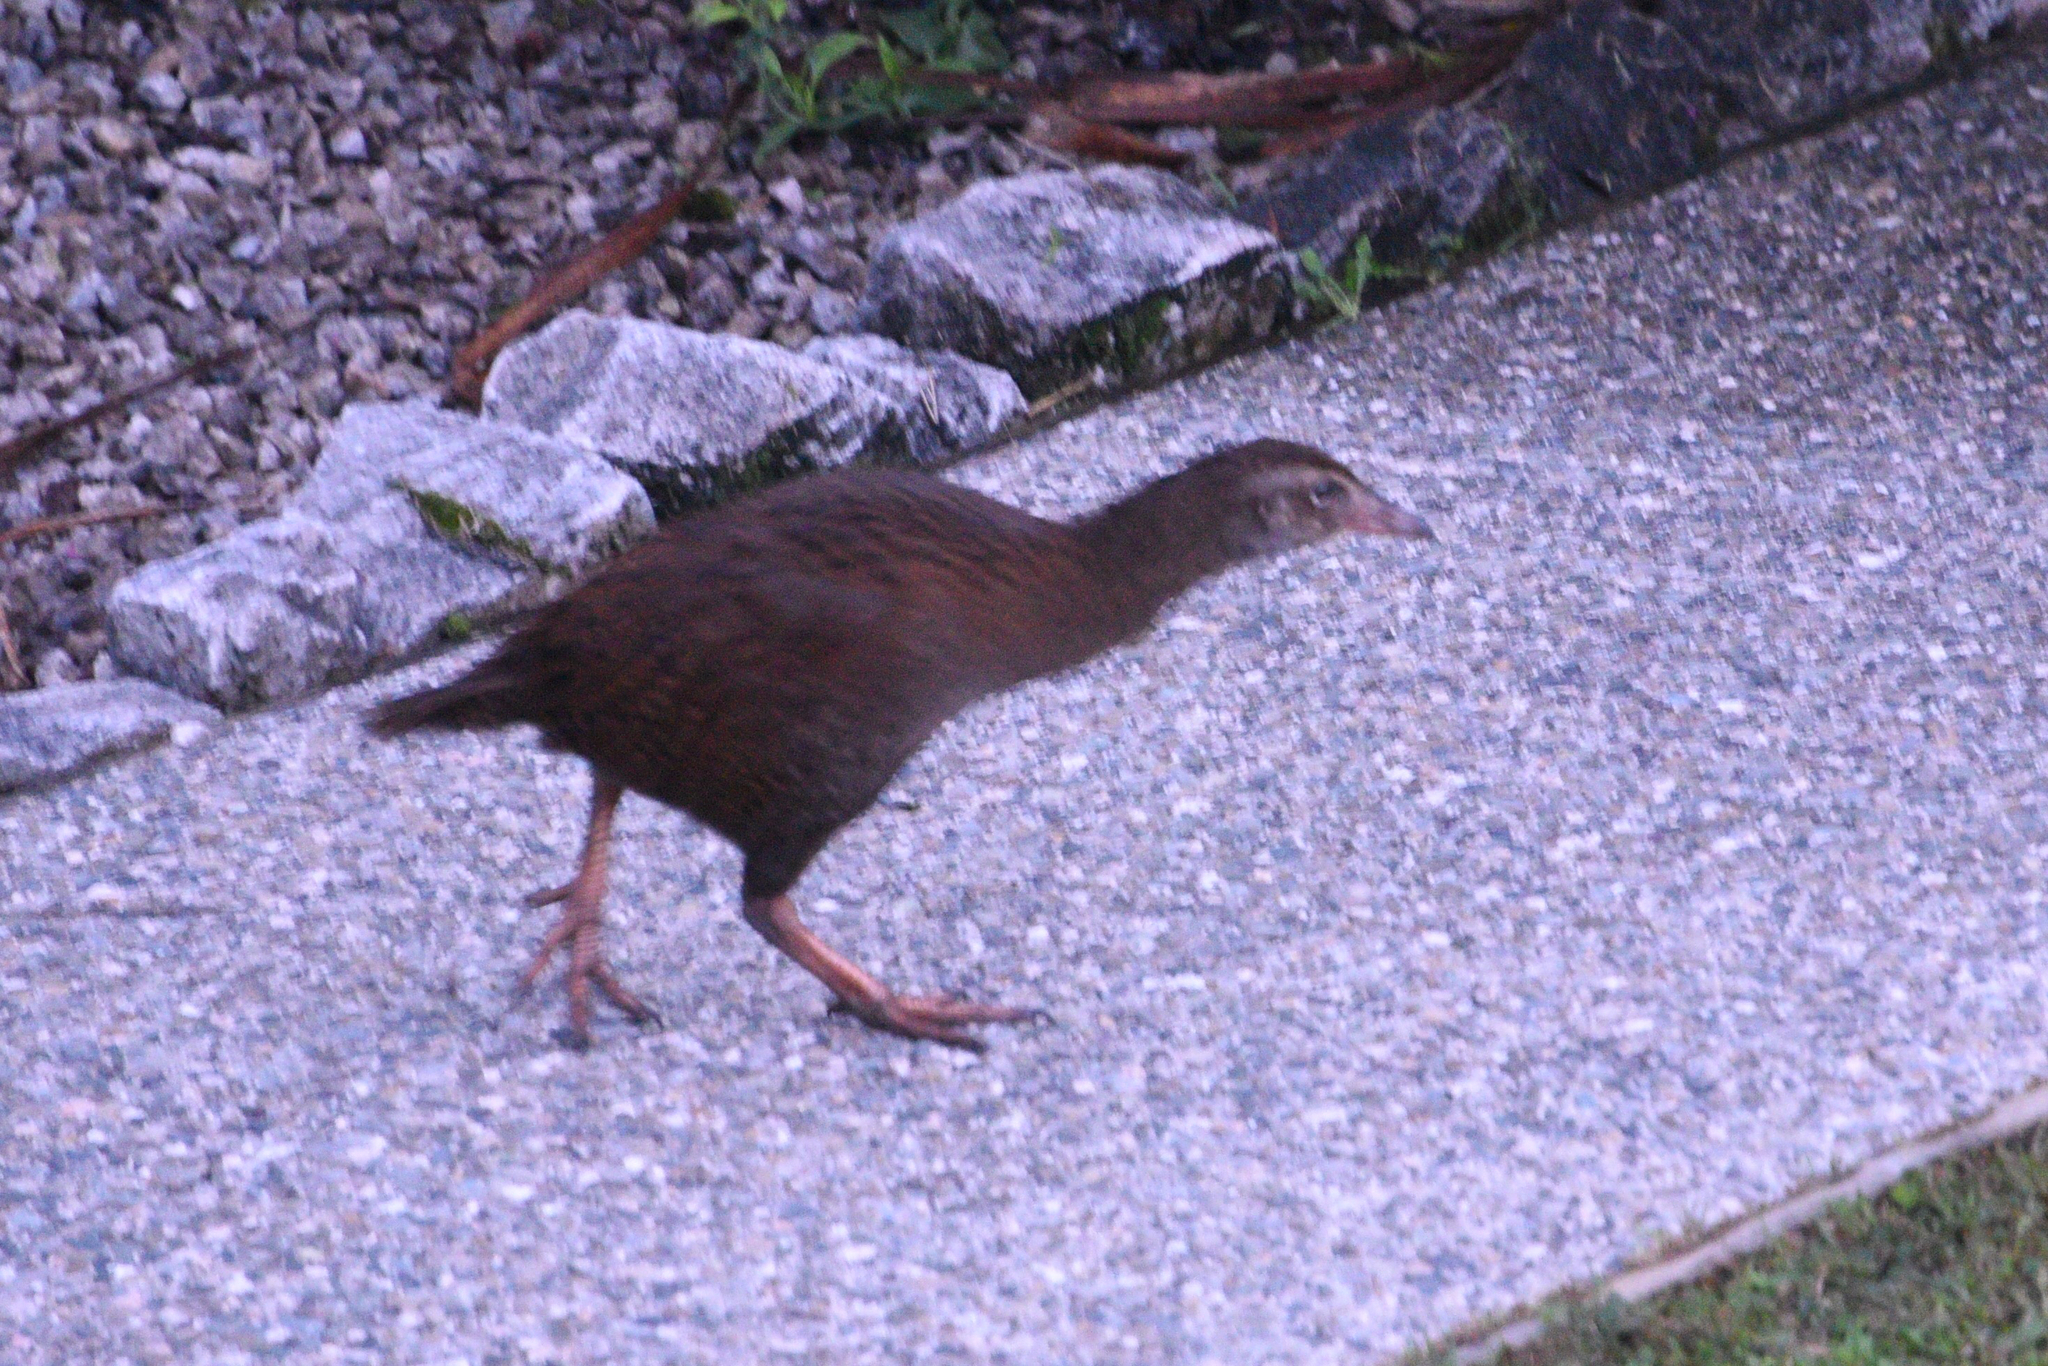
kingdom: Animalia
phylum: Chordata
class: Aves
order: Gruiformes
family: Rallidae
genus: Gallirallus
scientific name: Gallirallus australis
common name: Weka
